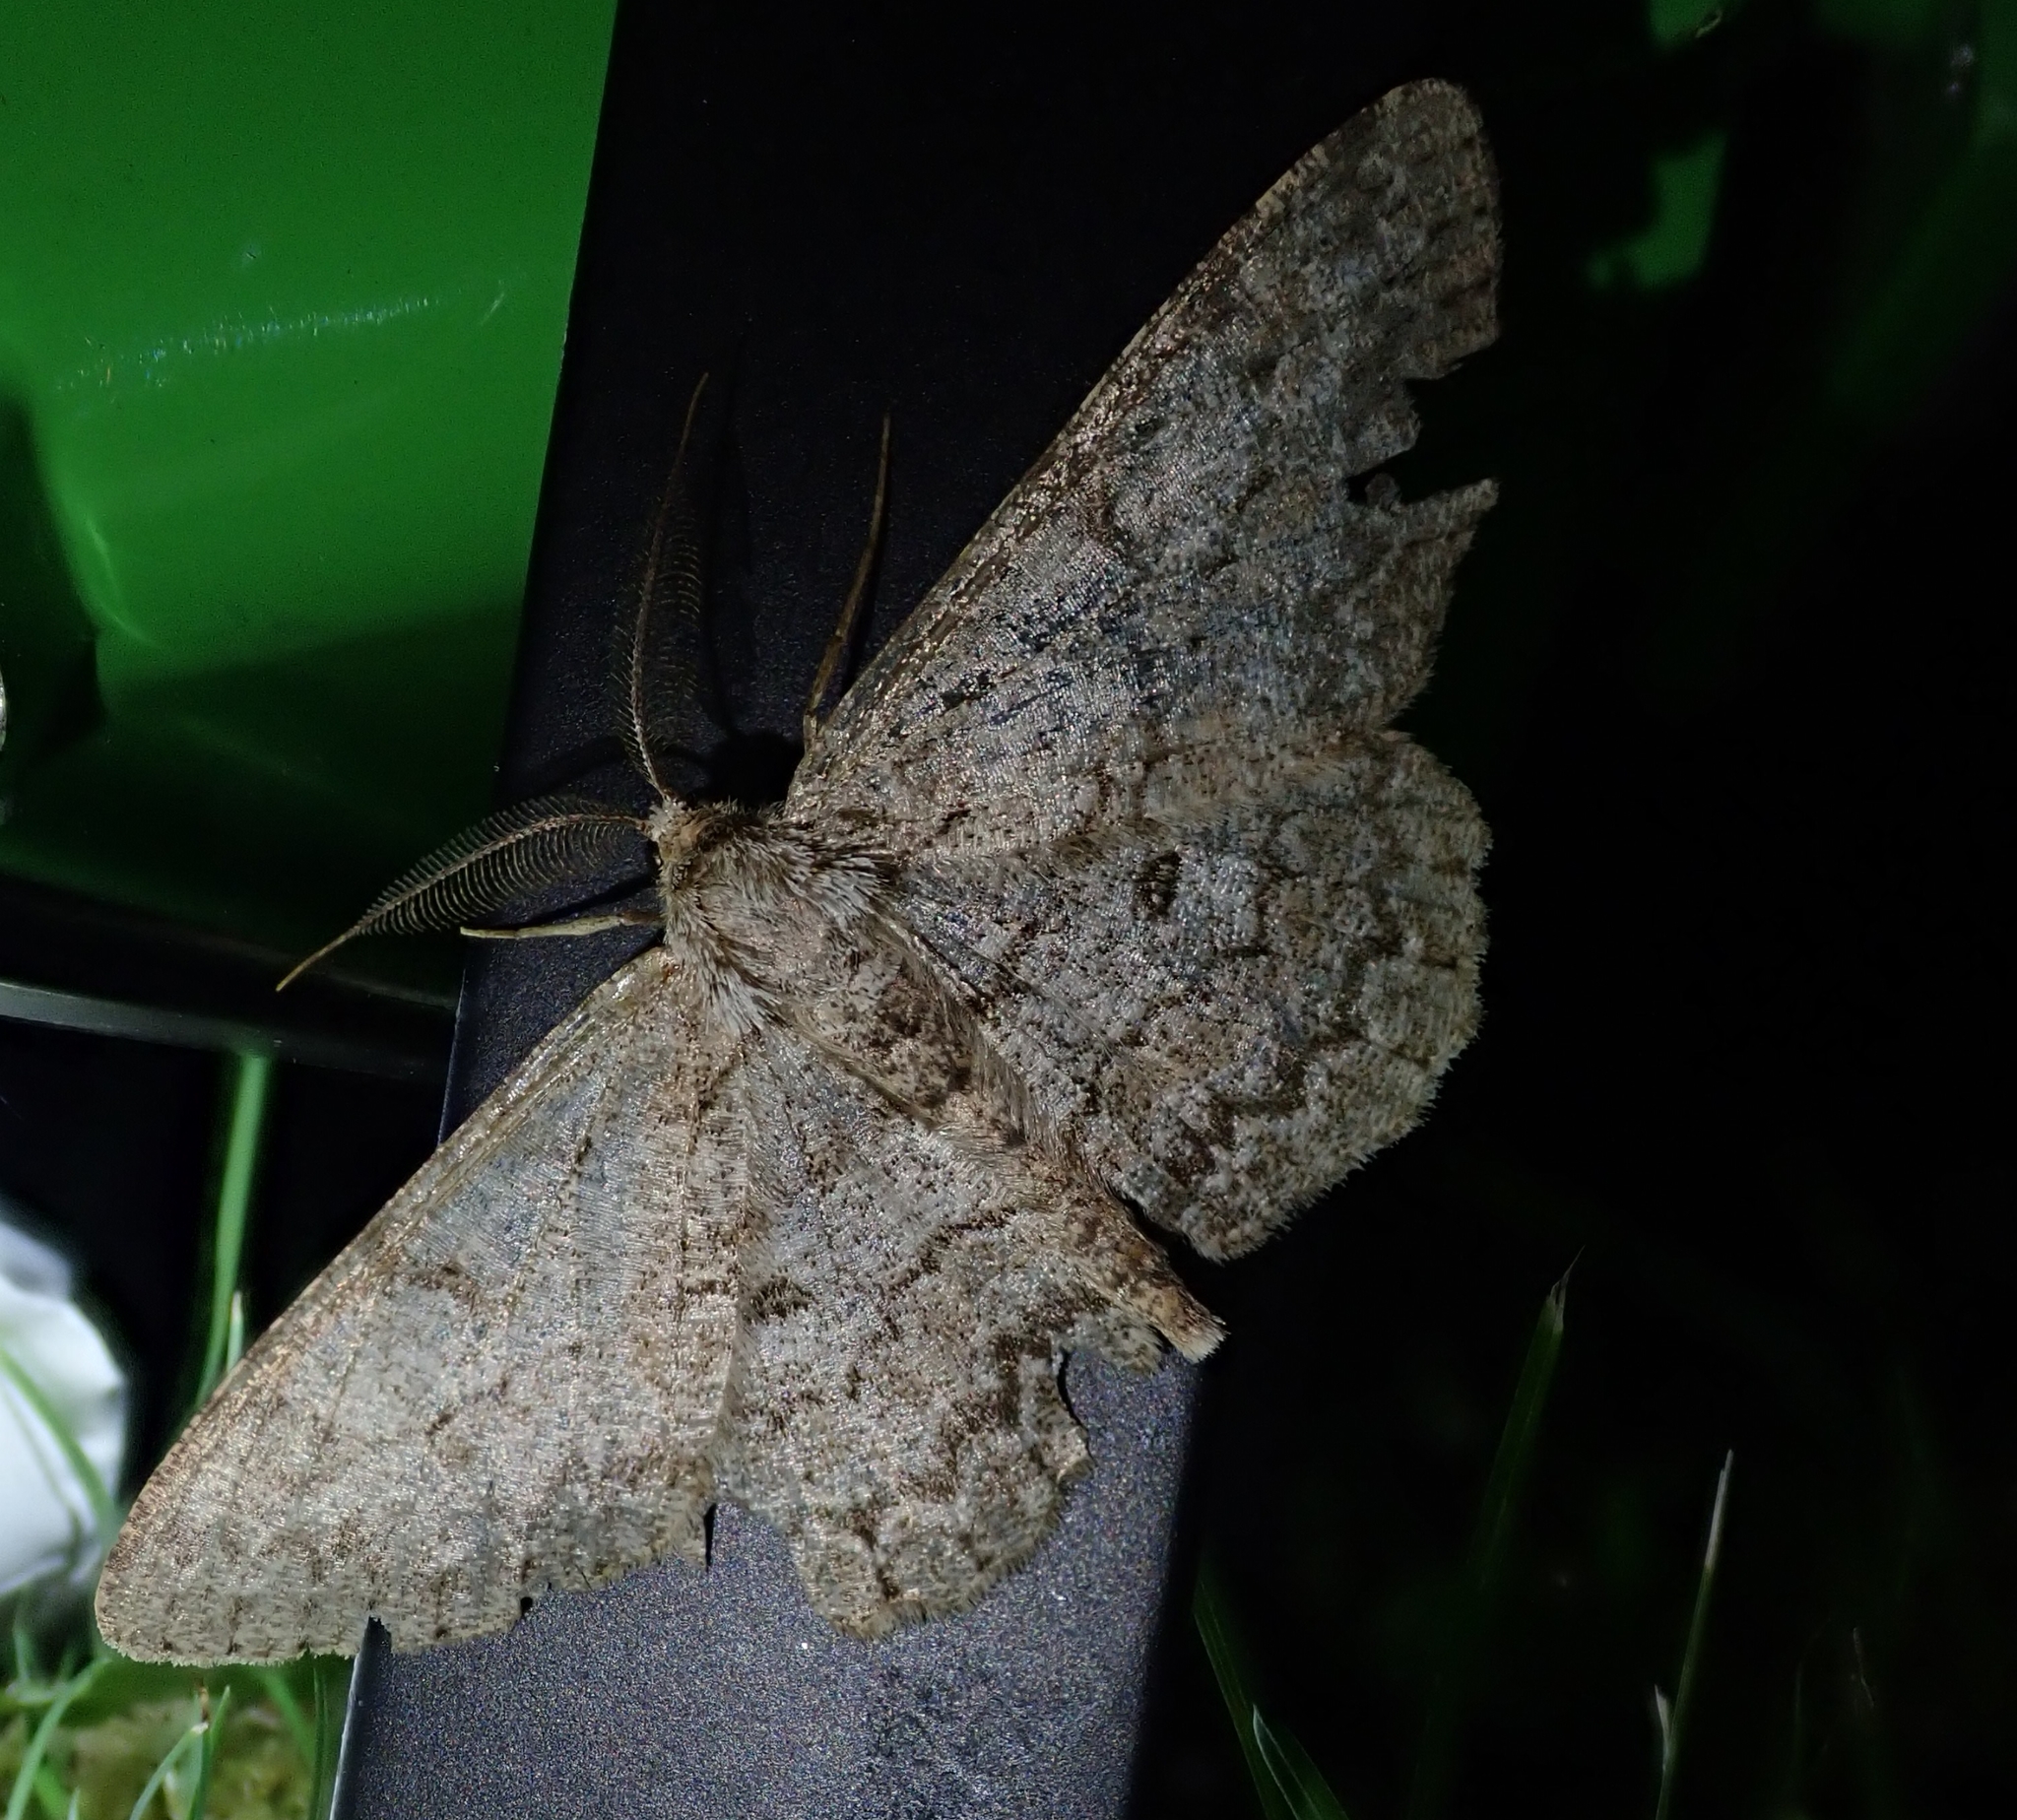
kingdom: Animalia
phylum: Arthropoda
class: Insecta
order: Lepidoptera
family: Geometridae
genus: Hypomecis
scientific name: Hypomecis punctinalis
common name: Pale oak beauty
